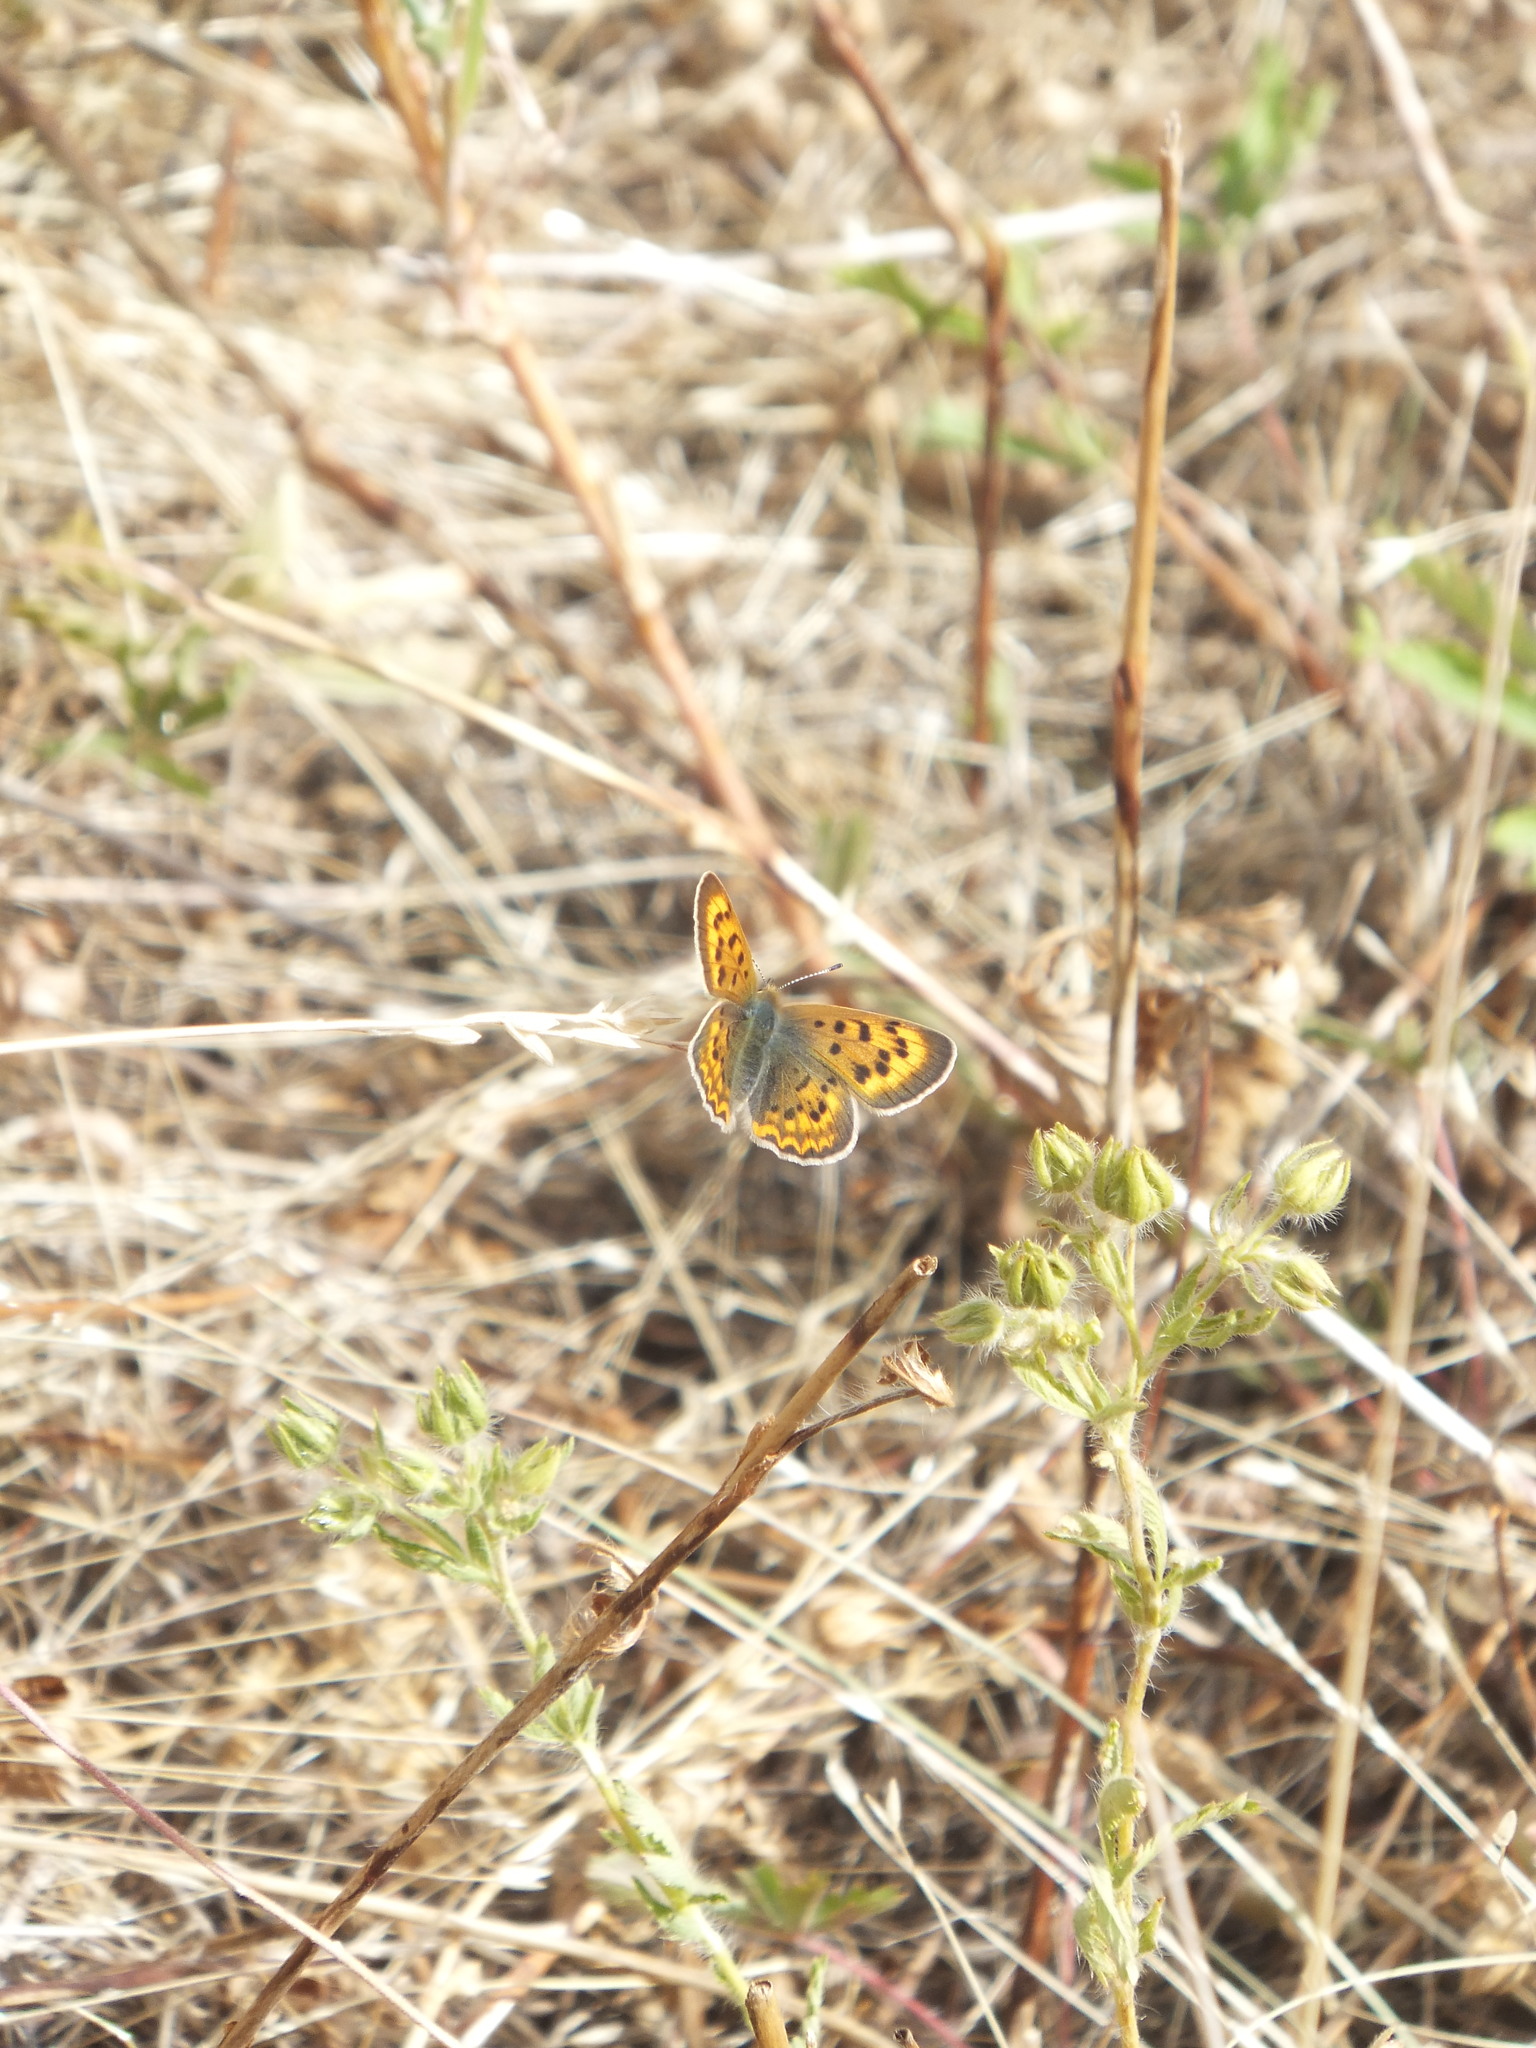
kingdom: Animalia
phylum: Arthropoda
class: Insecta
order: Lepidoptera
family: Lycaenidae
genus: Tharsalea
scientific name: Tharsalea helloides
